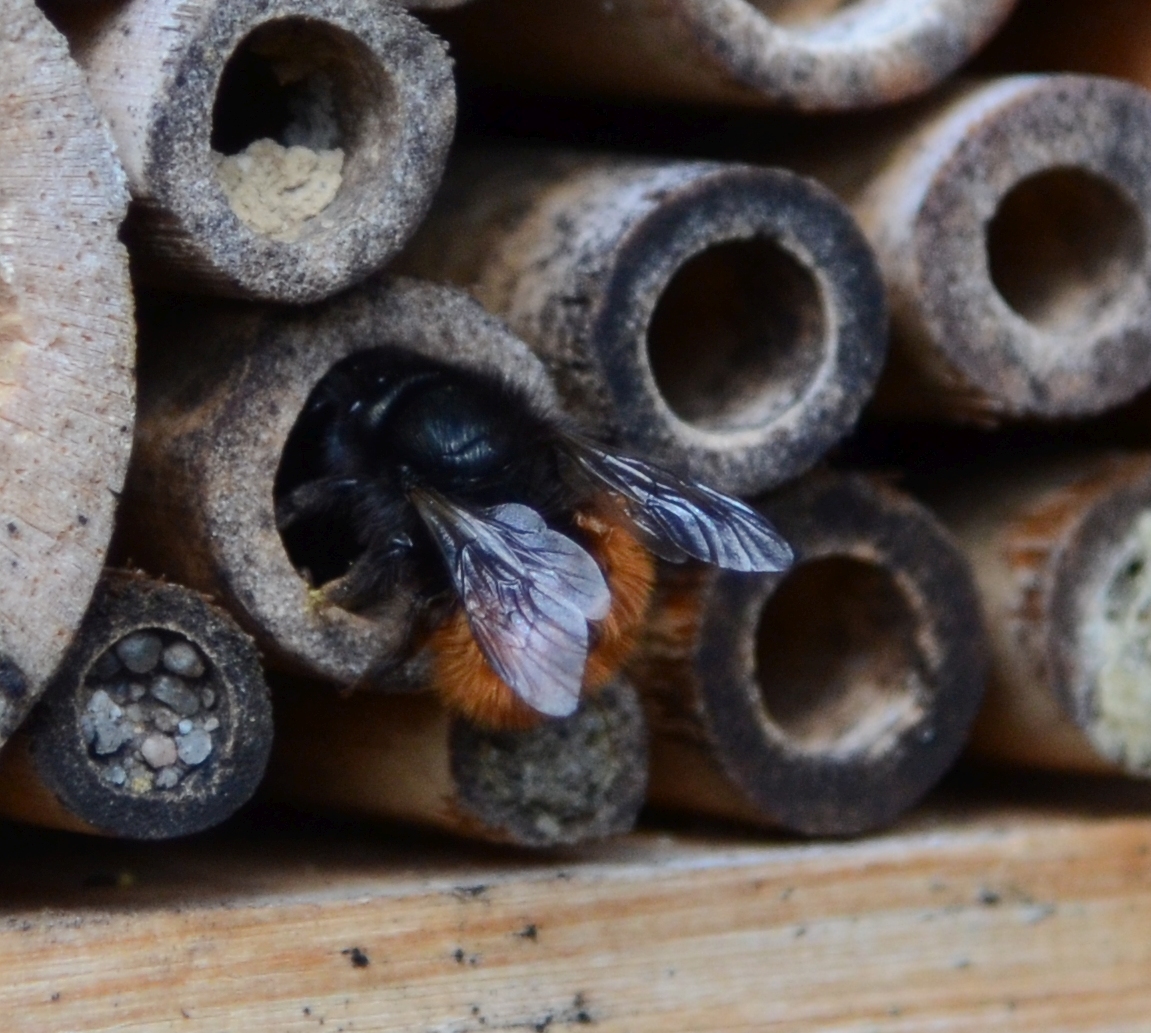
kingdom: Animalia
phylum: Arthropoda
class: Insecta
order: Hymenoptera
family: Megachilidae
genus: Osmia
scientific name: Osmia cornuta
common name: Mason bee
